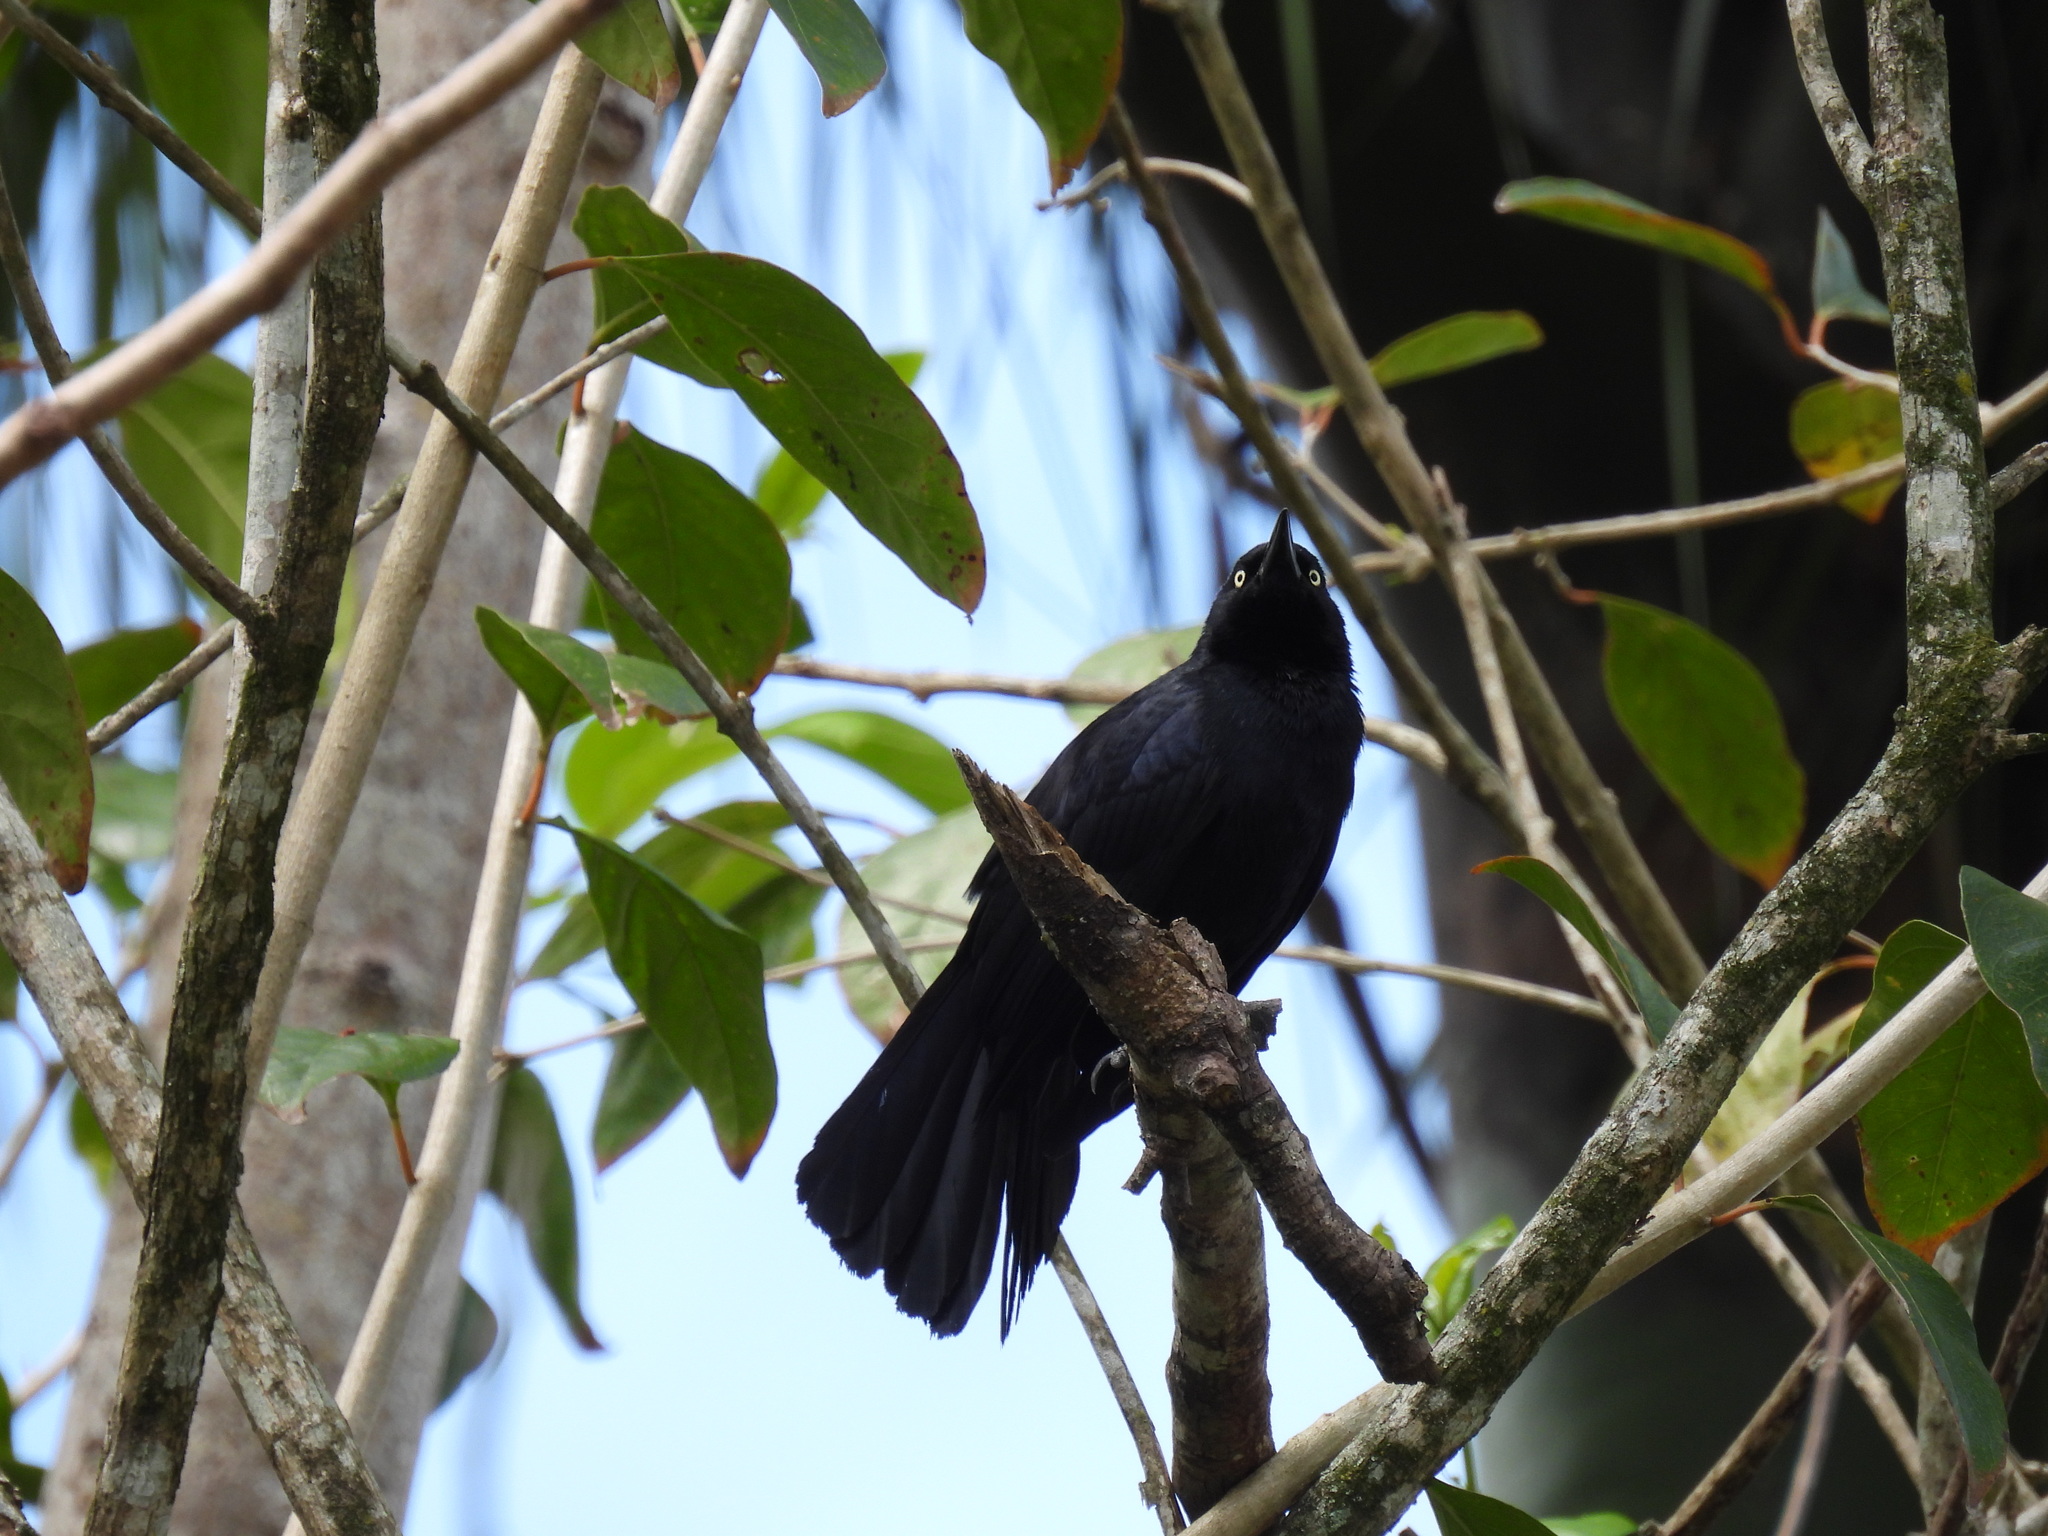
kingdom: Animalia
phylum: Chordata
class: Aves
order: Passeriformes
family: Icteridae
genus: Quiscalus
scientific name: Quiscalus niger
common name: Greater antillean grackle
